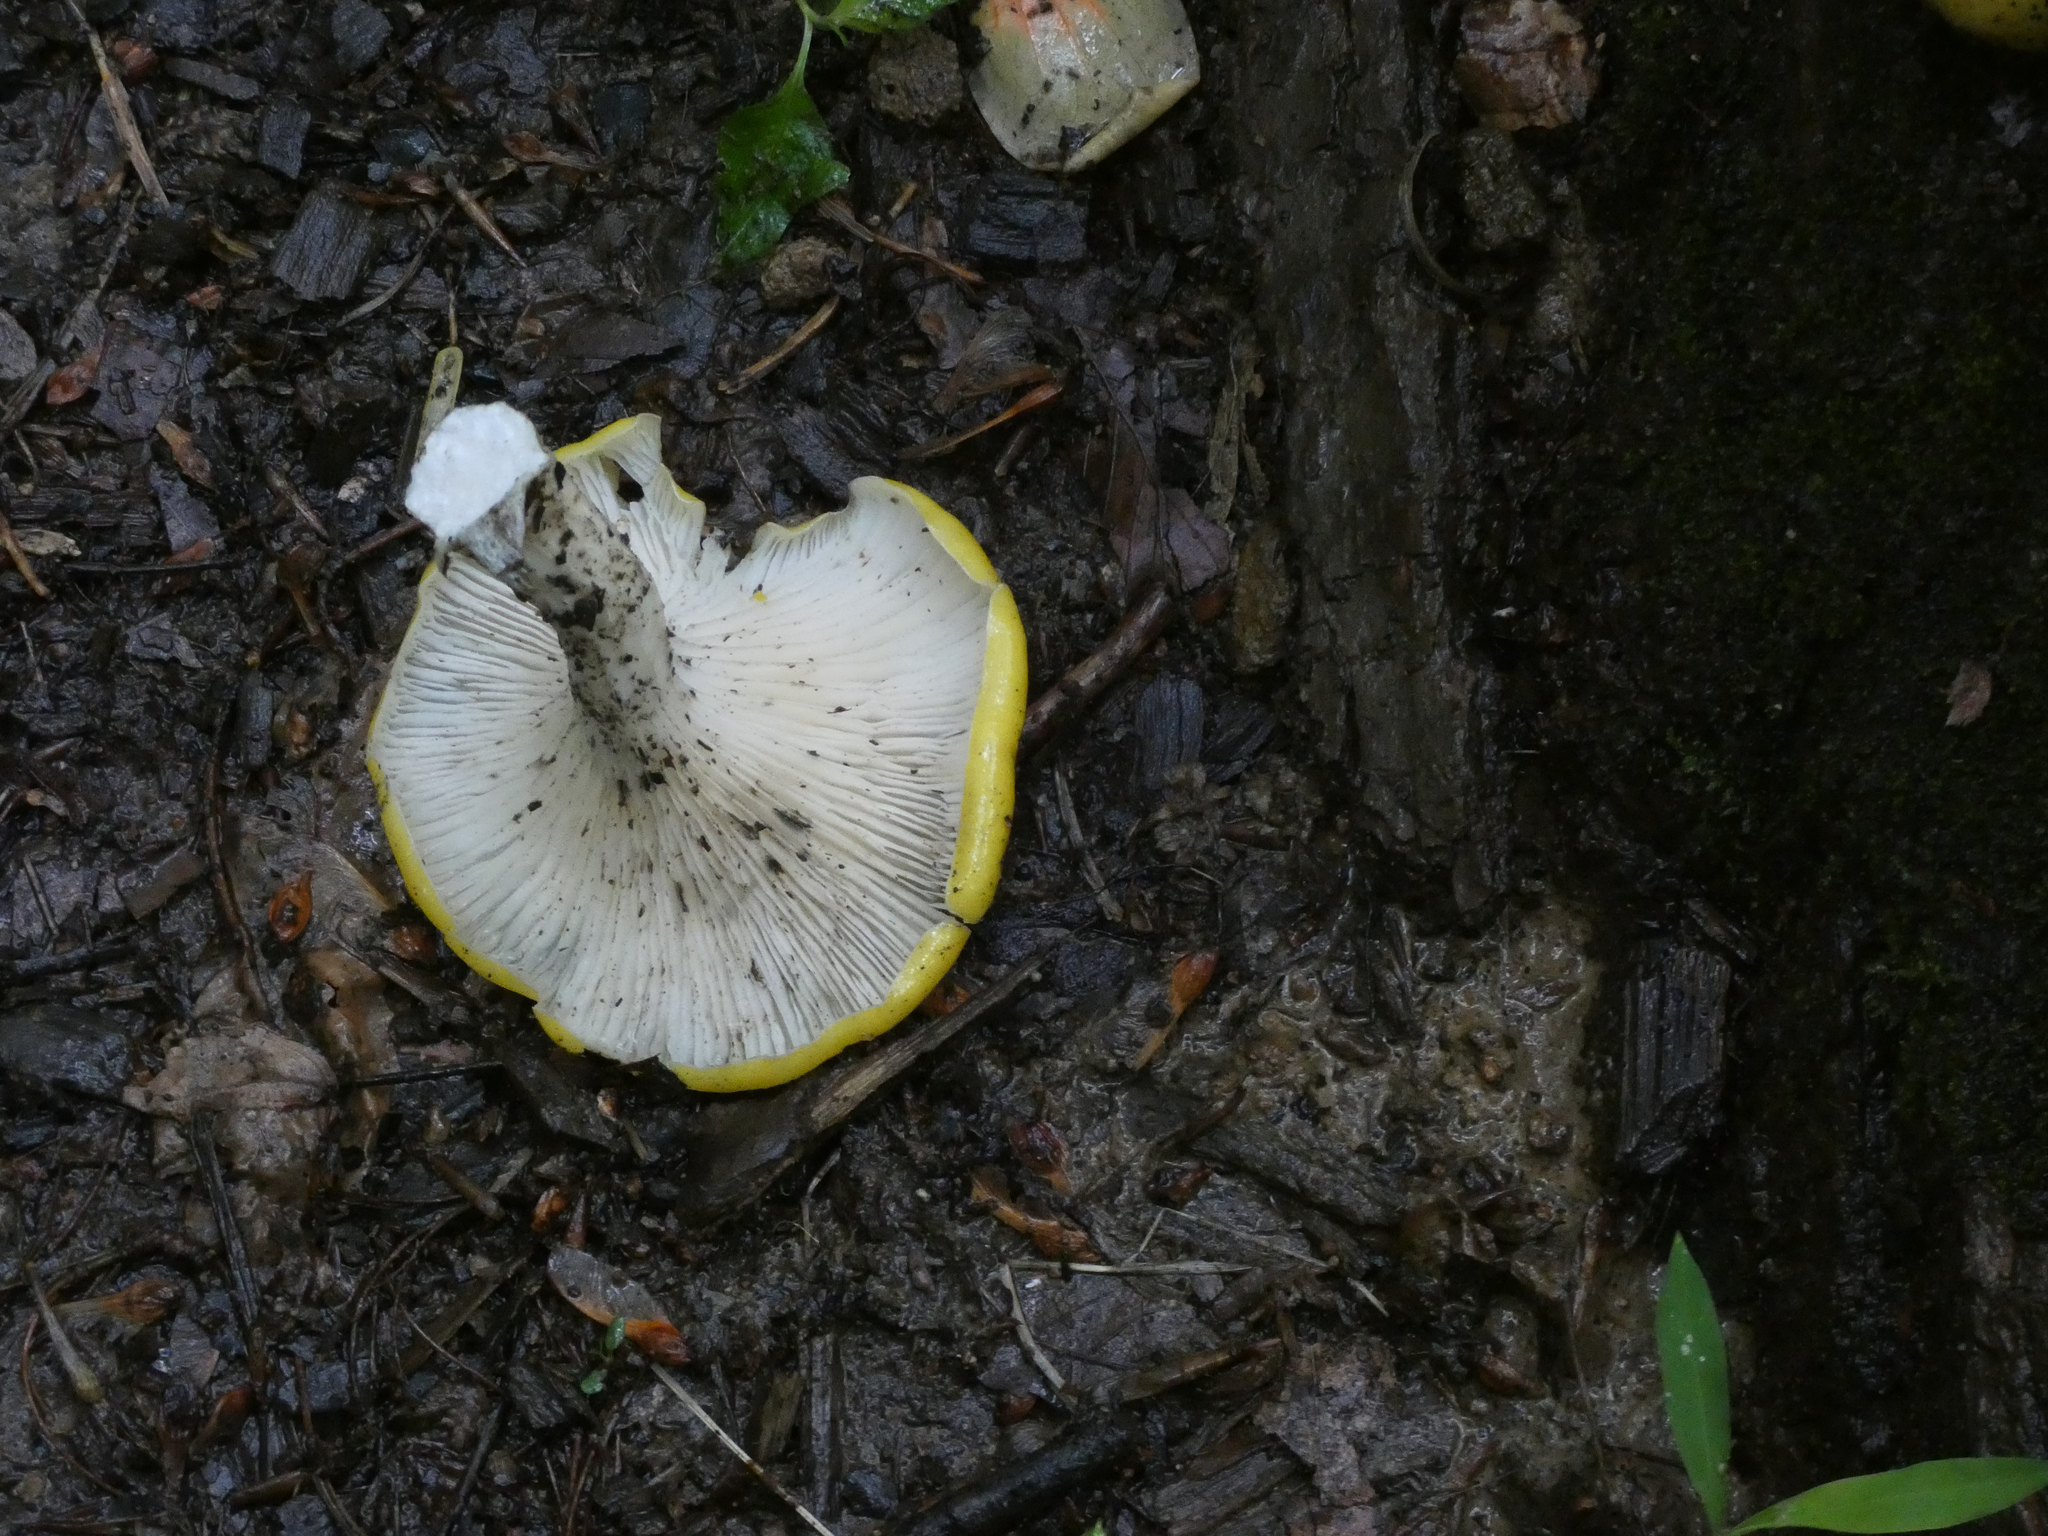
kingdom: Fungi
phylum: Basidiomycota
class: Agaricomycetes
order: Agaricales
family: Pleurotaceae
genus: Pleurotus
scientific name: Pleurotus citrinopileatus
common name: Golden oyster mushroom
